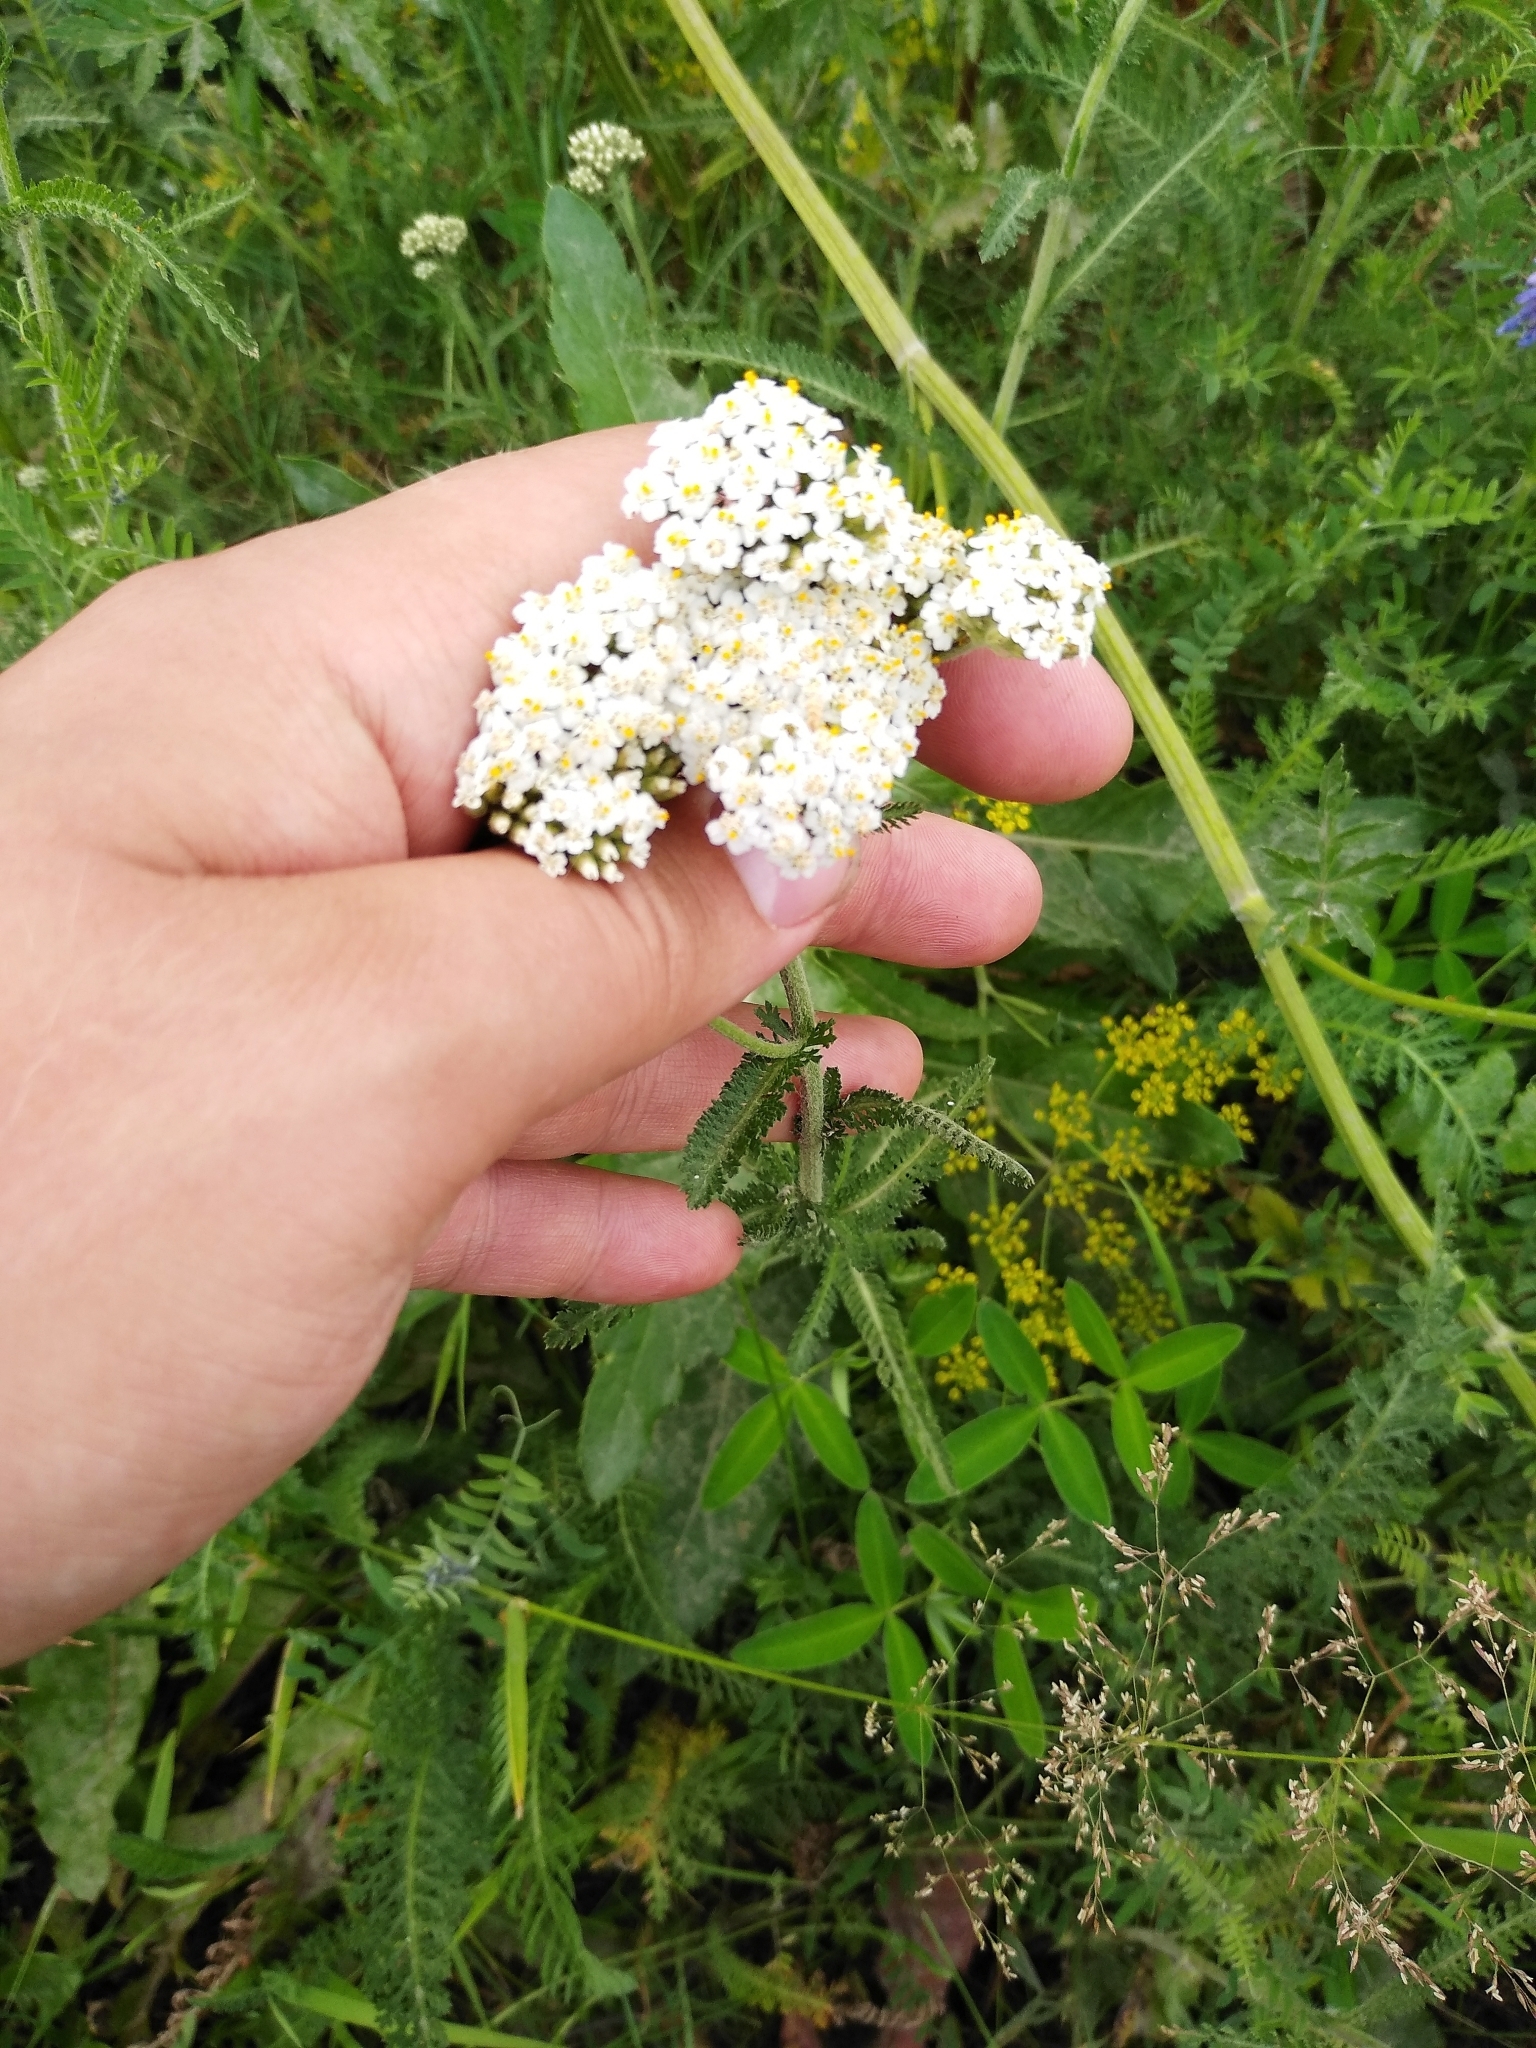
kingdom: Plantae
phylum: Tracheophyta
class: Magnoliopsida
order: Asterales
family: Asteraceae
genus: Achillea
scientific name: Achillea millefolium
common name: Yarrow
